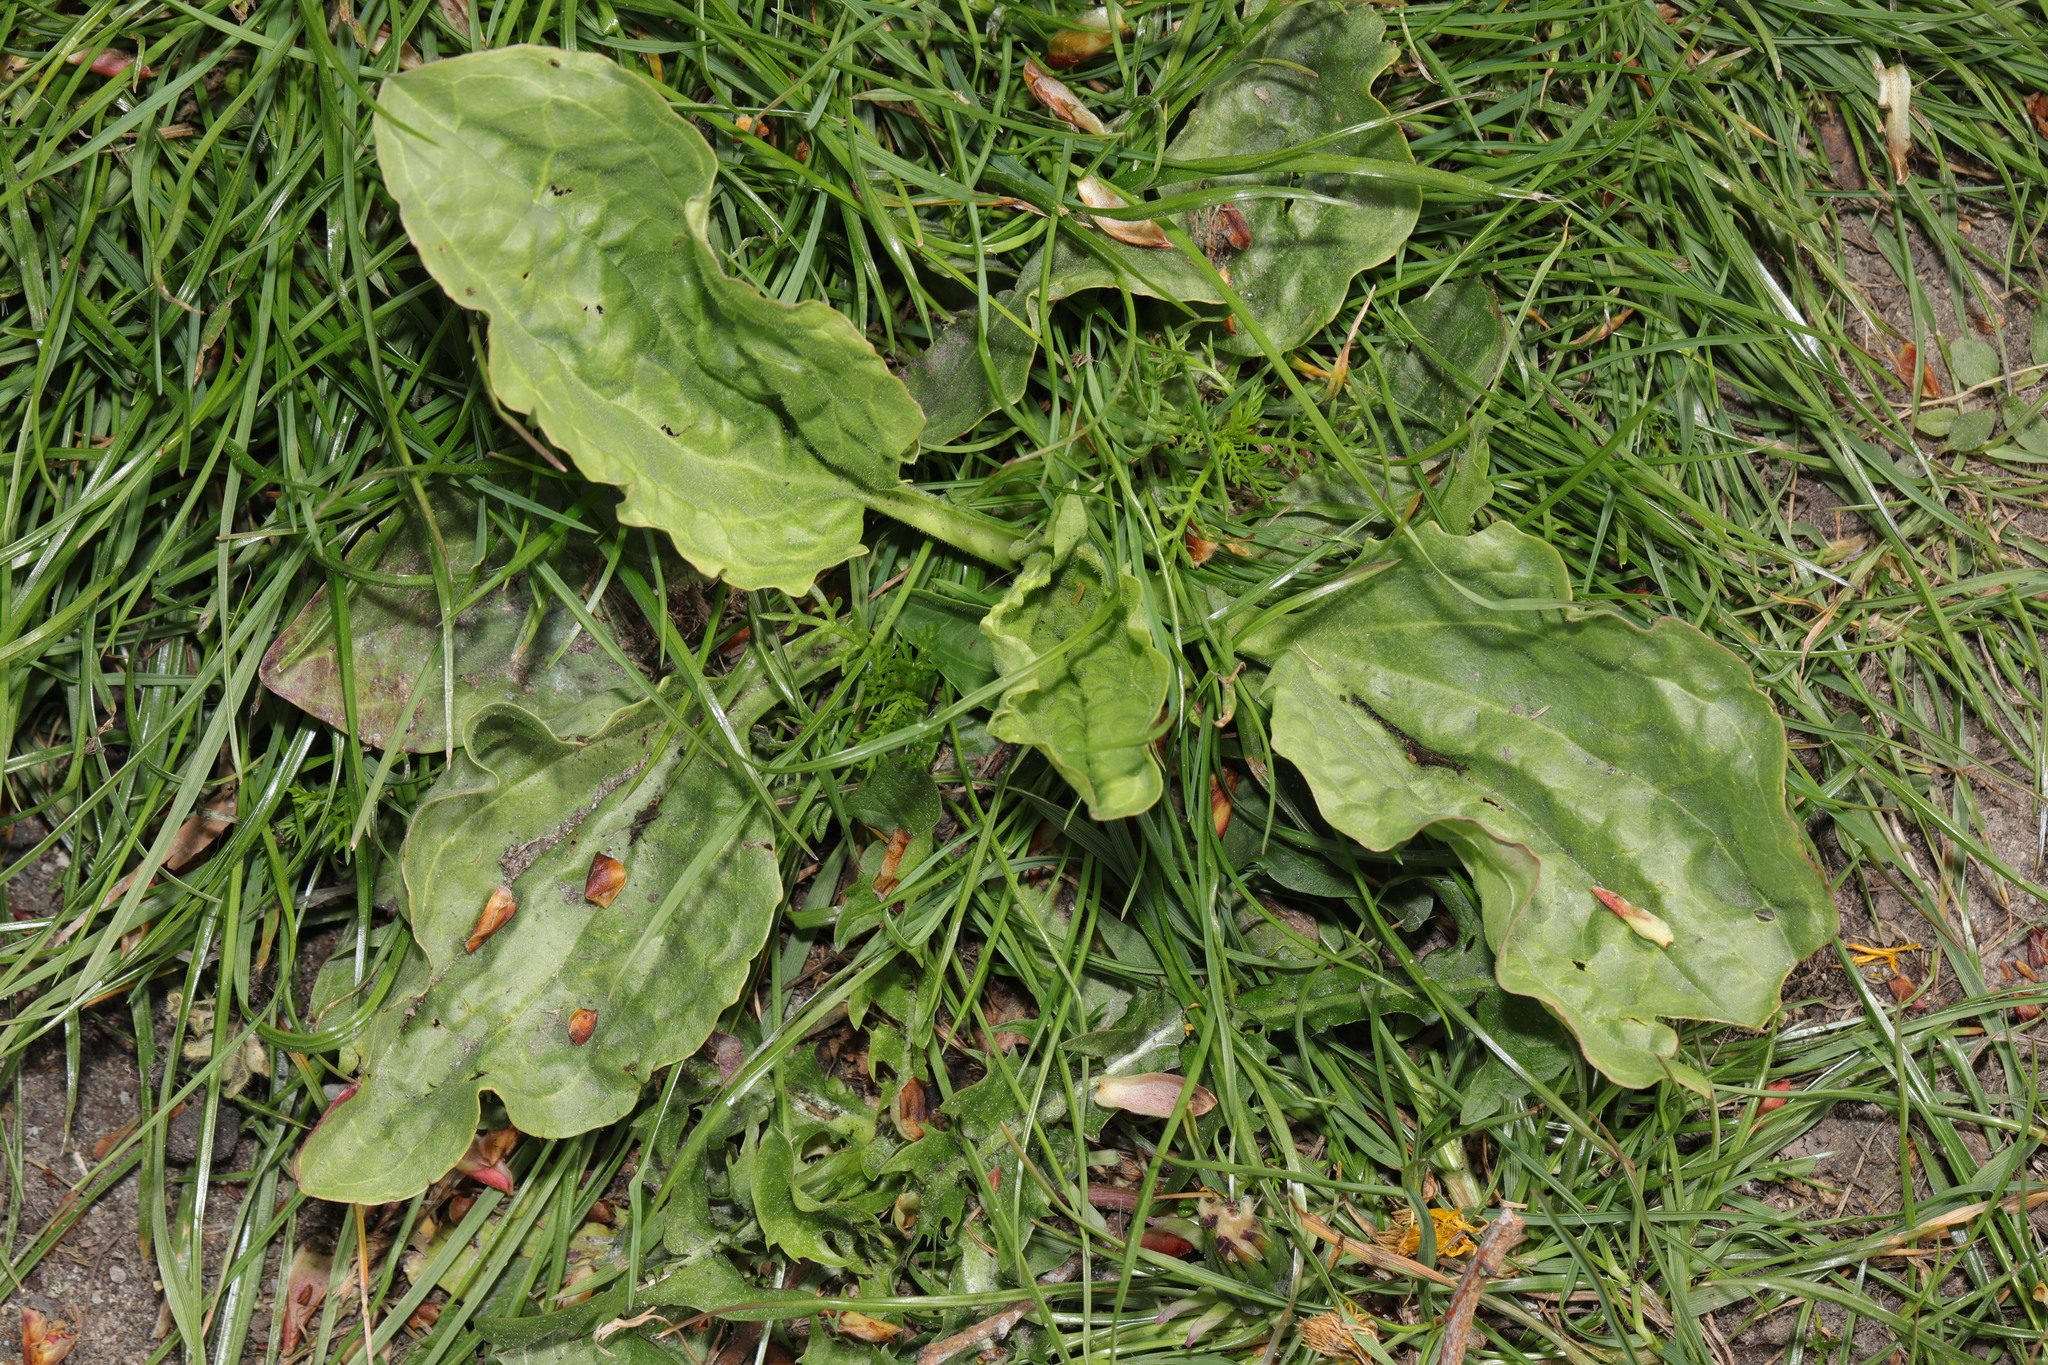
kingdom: Plantae
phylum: Tracheophyta
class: Magnoliopsida
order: Lamiales
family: Plantaginaceae
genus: Plantago
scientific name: Plantago major
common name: Common plantain
